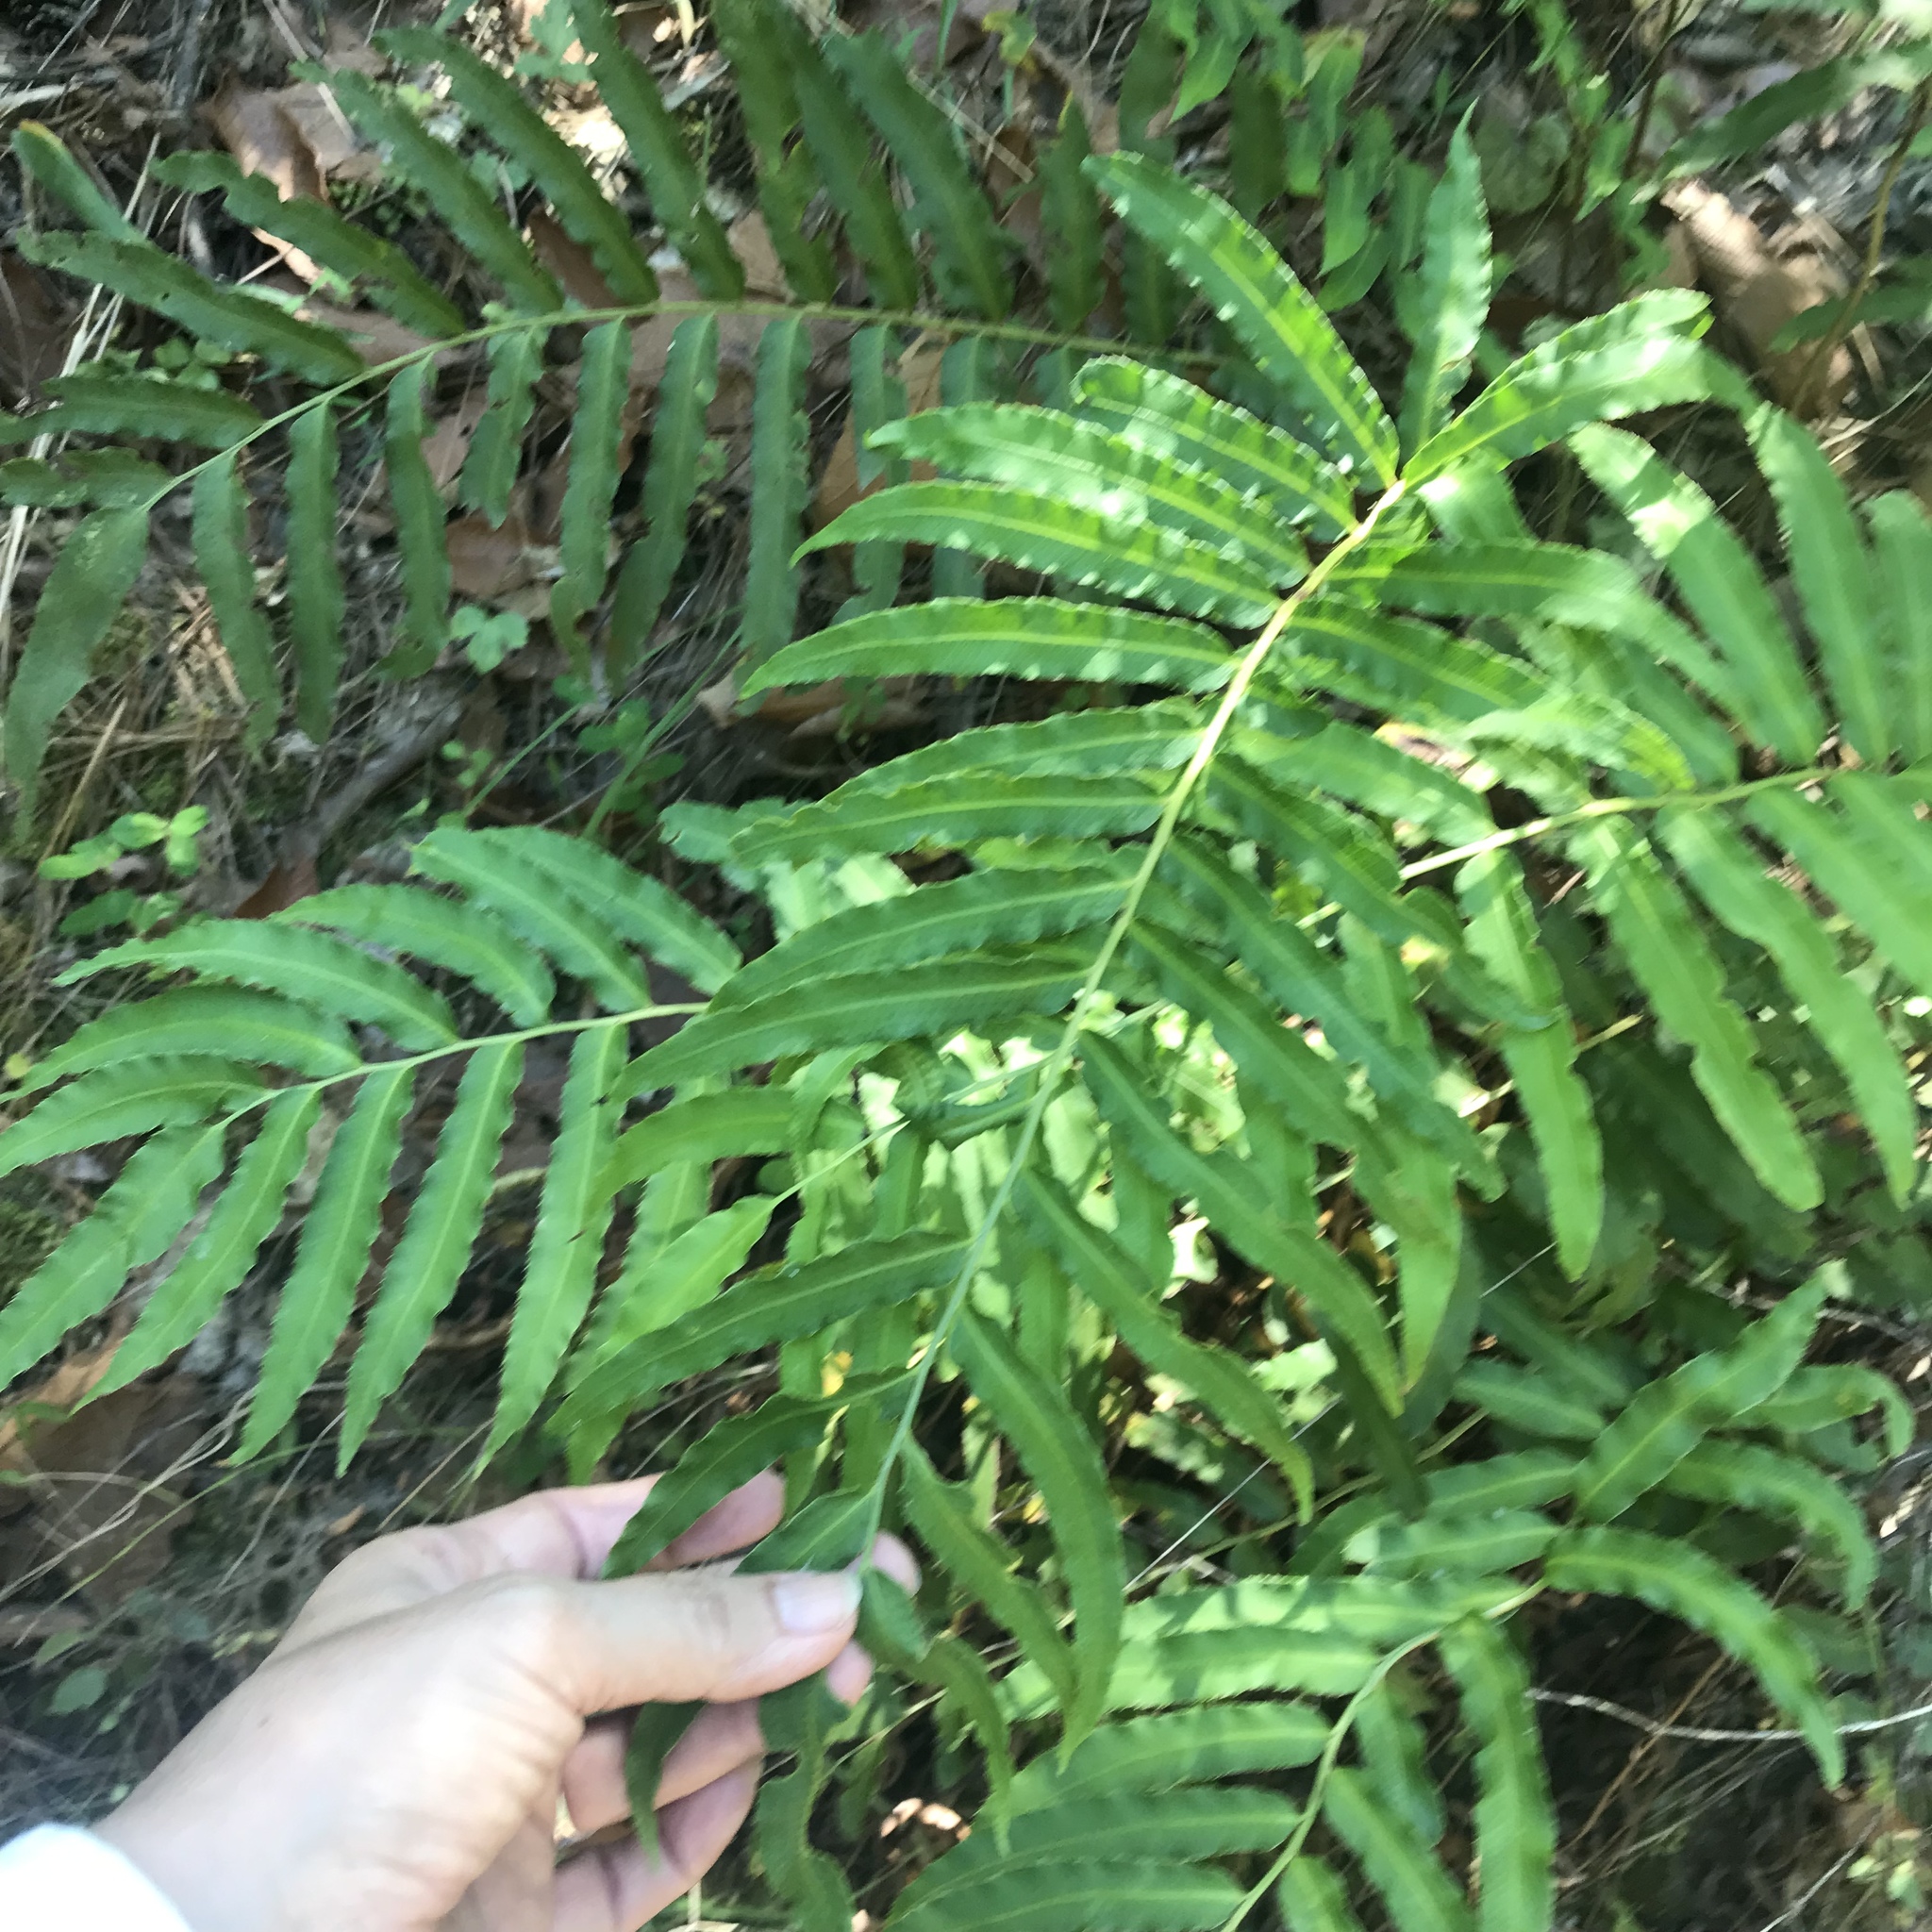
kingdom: Plantae
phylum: Tracheophyta
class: Polypodiopsida
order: Polypodiales
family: Dryopteridaceae
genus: Phanerophlebia
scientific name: Phanerophlebia umbonata
